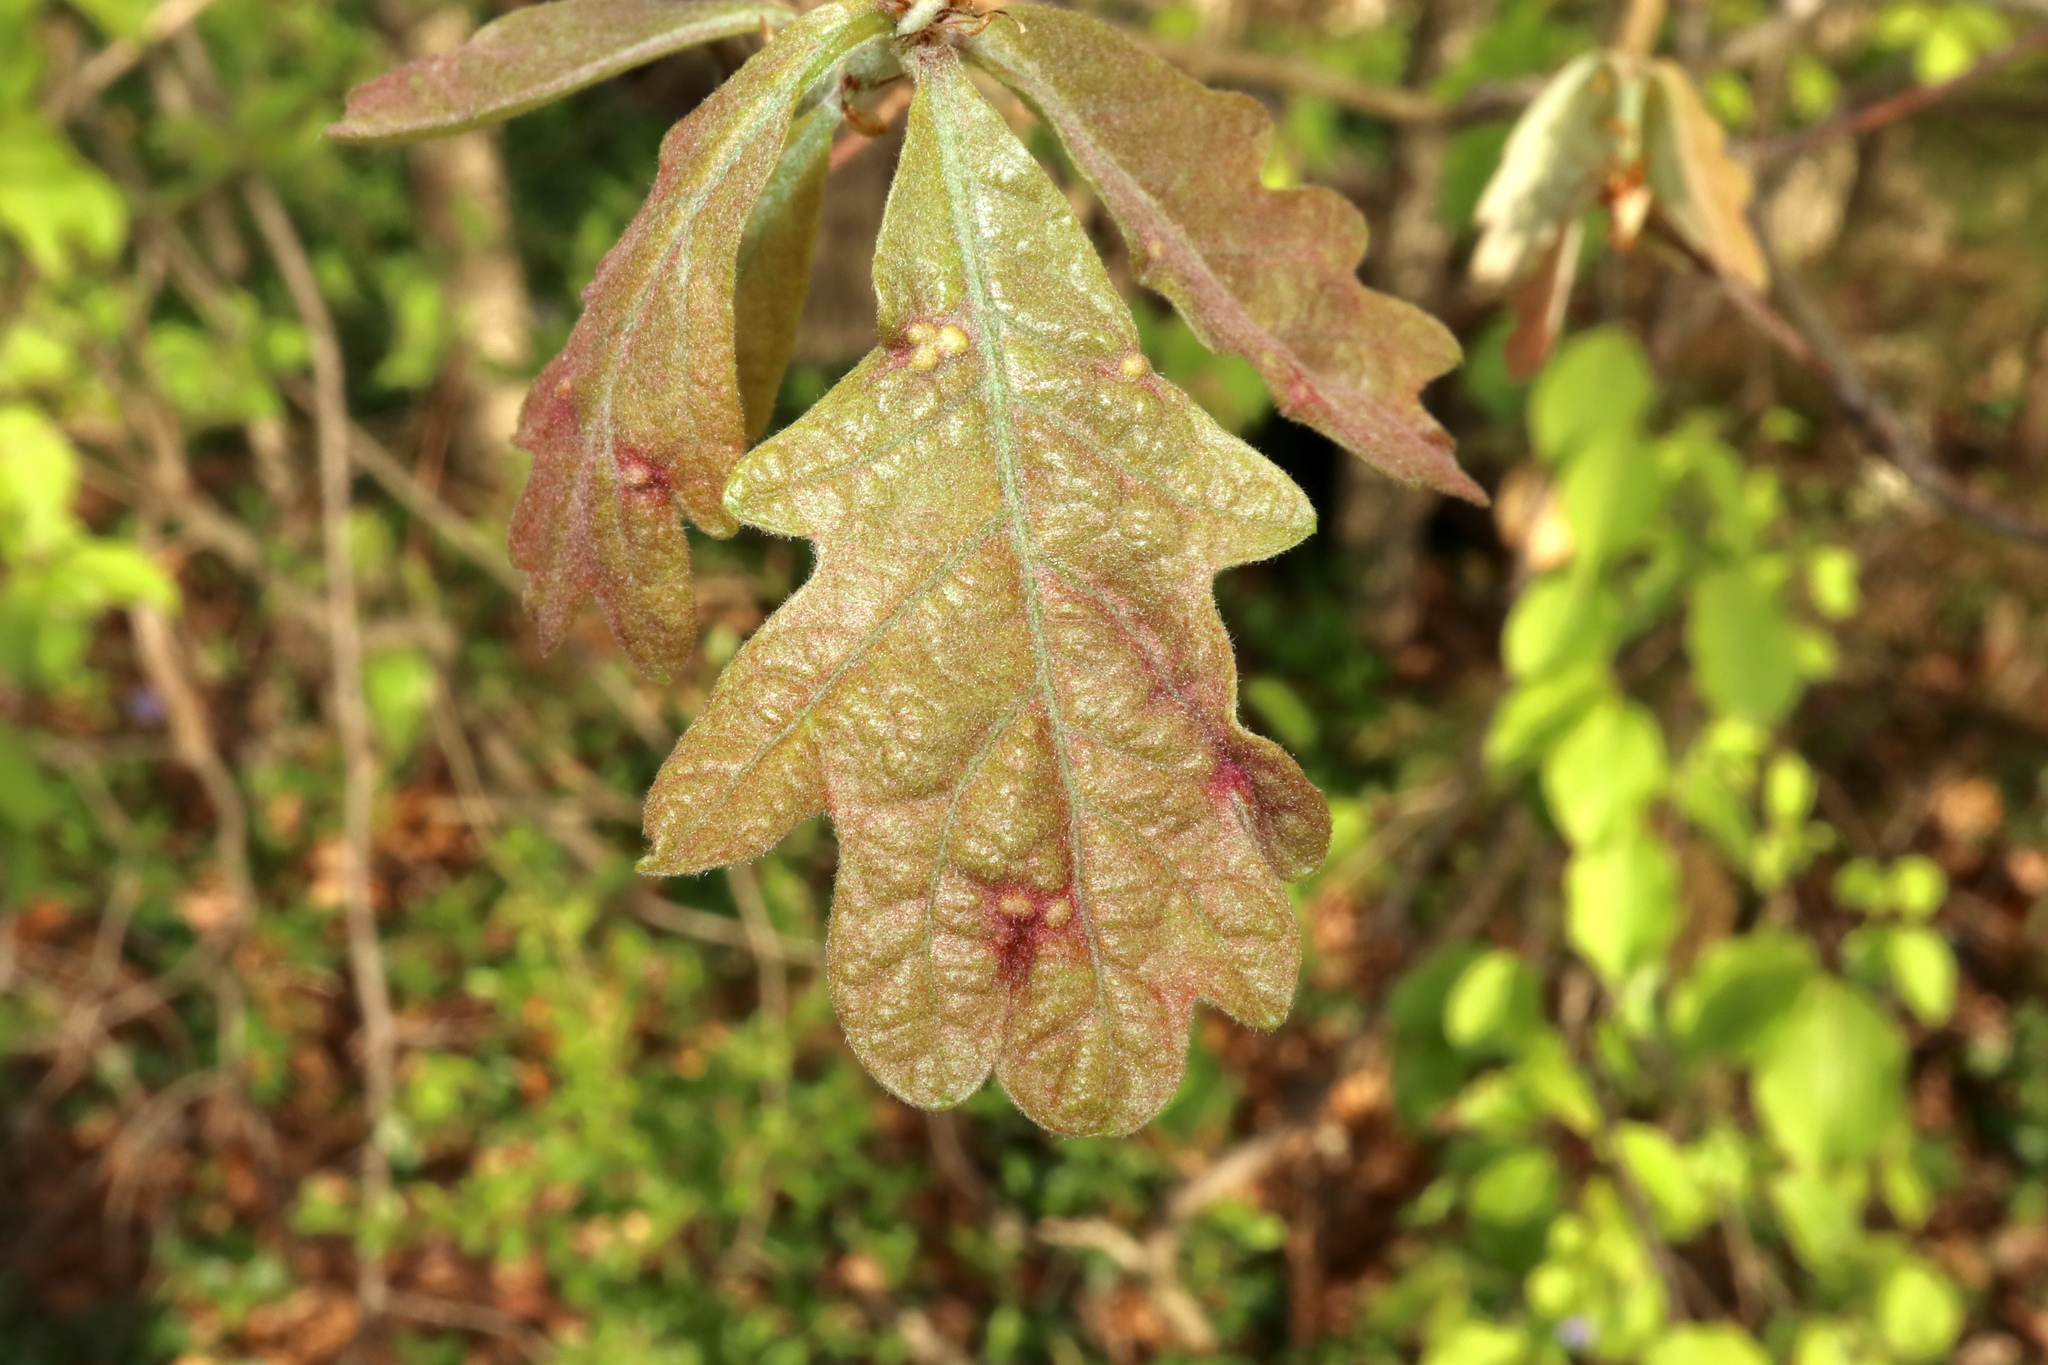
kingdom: Animalia
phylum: Arthropoda
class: Insecta
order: Hymenoptera
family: Cynipidae
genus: Neuroterus
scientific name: Neuroterus quercusverrucarum
